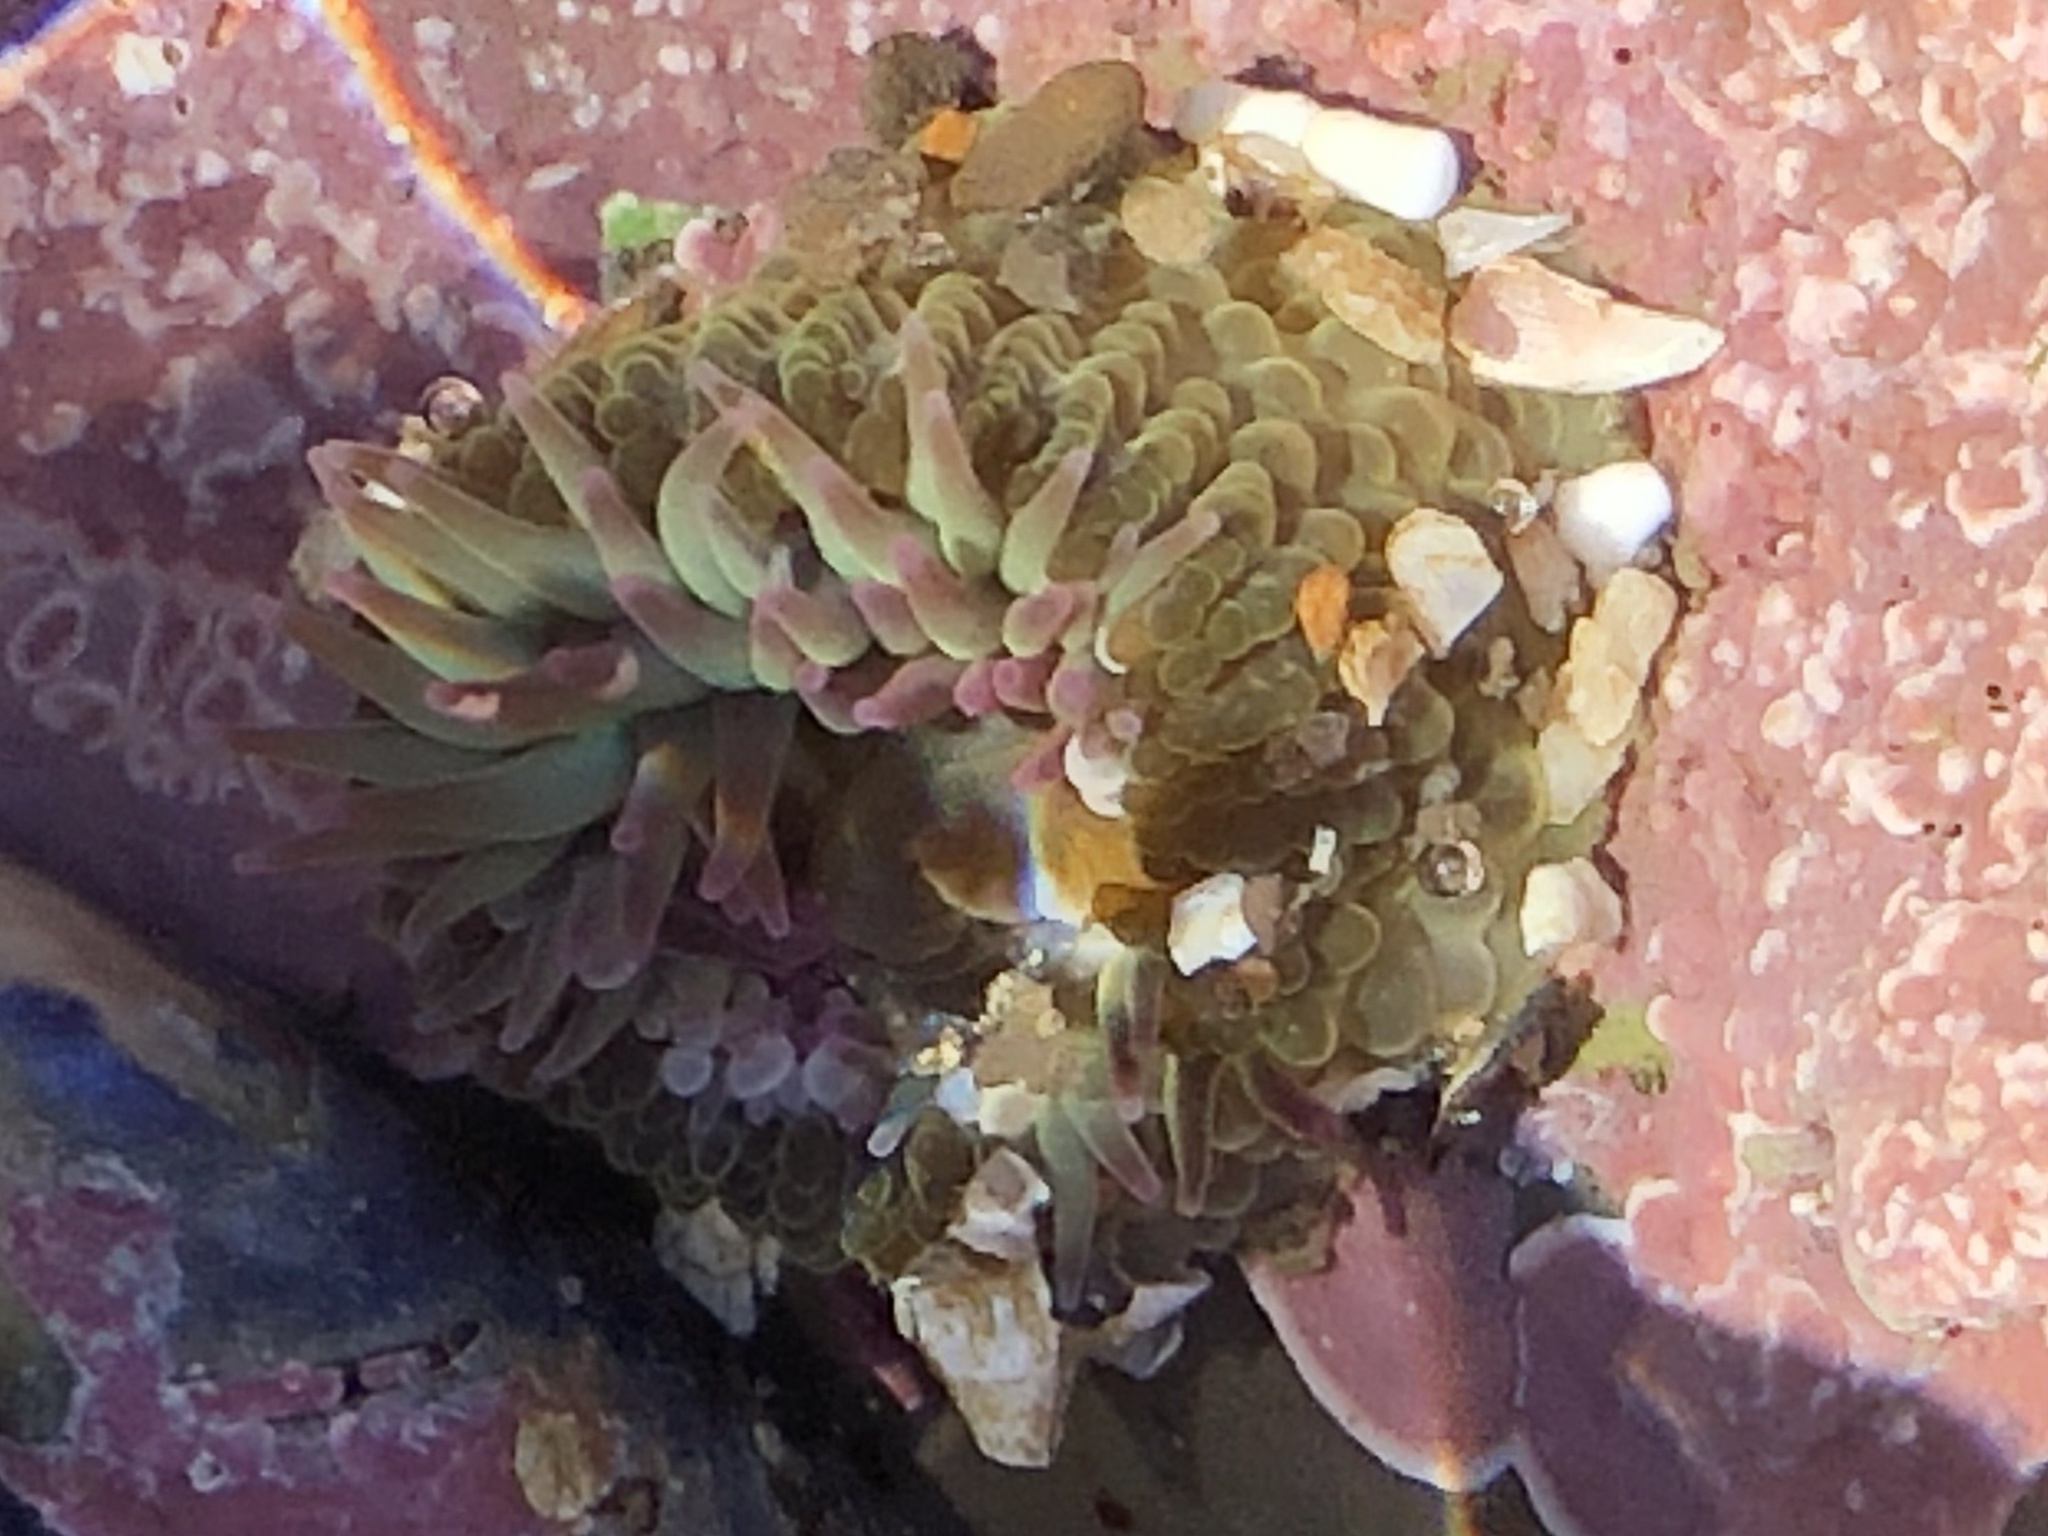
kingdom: Animalia
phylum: Cnidaria
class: Anthozoa
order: Actiniaria
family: Actiniidae
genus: Anthopleura
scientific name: Anthopleura elegantissima
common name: Clonal anemone
